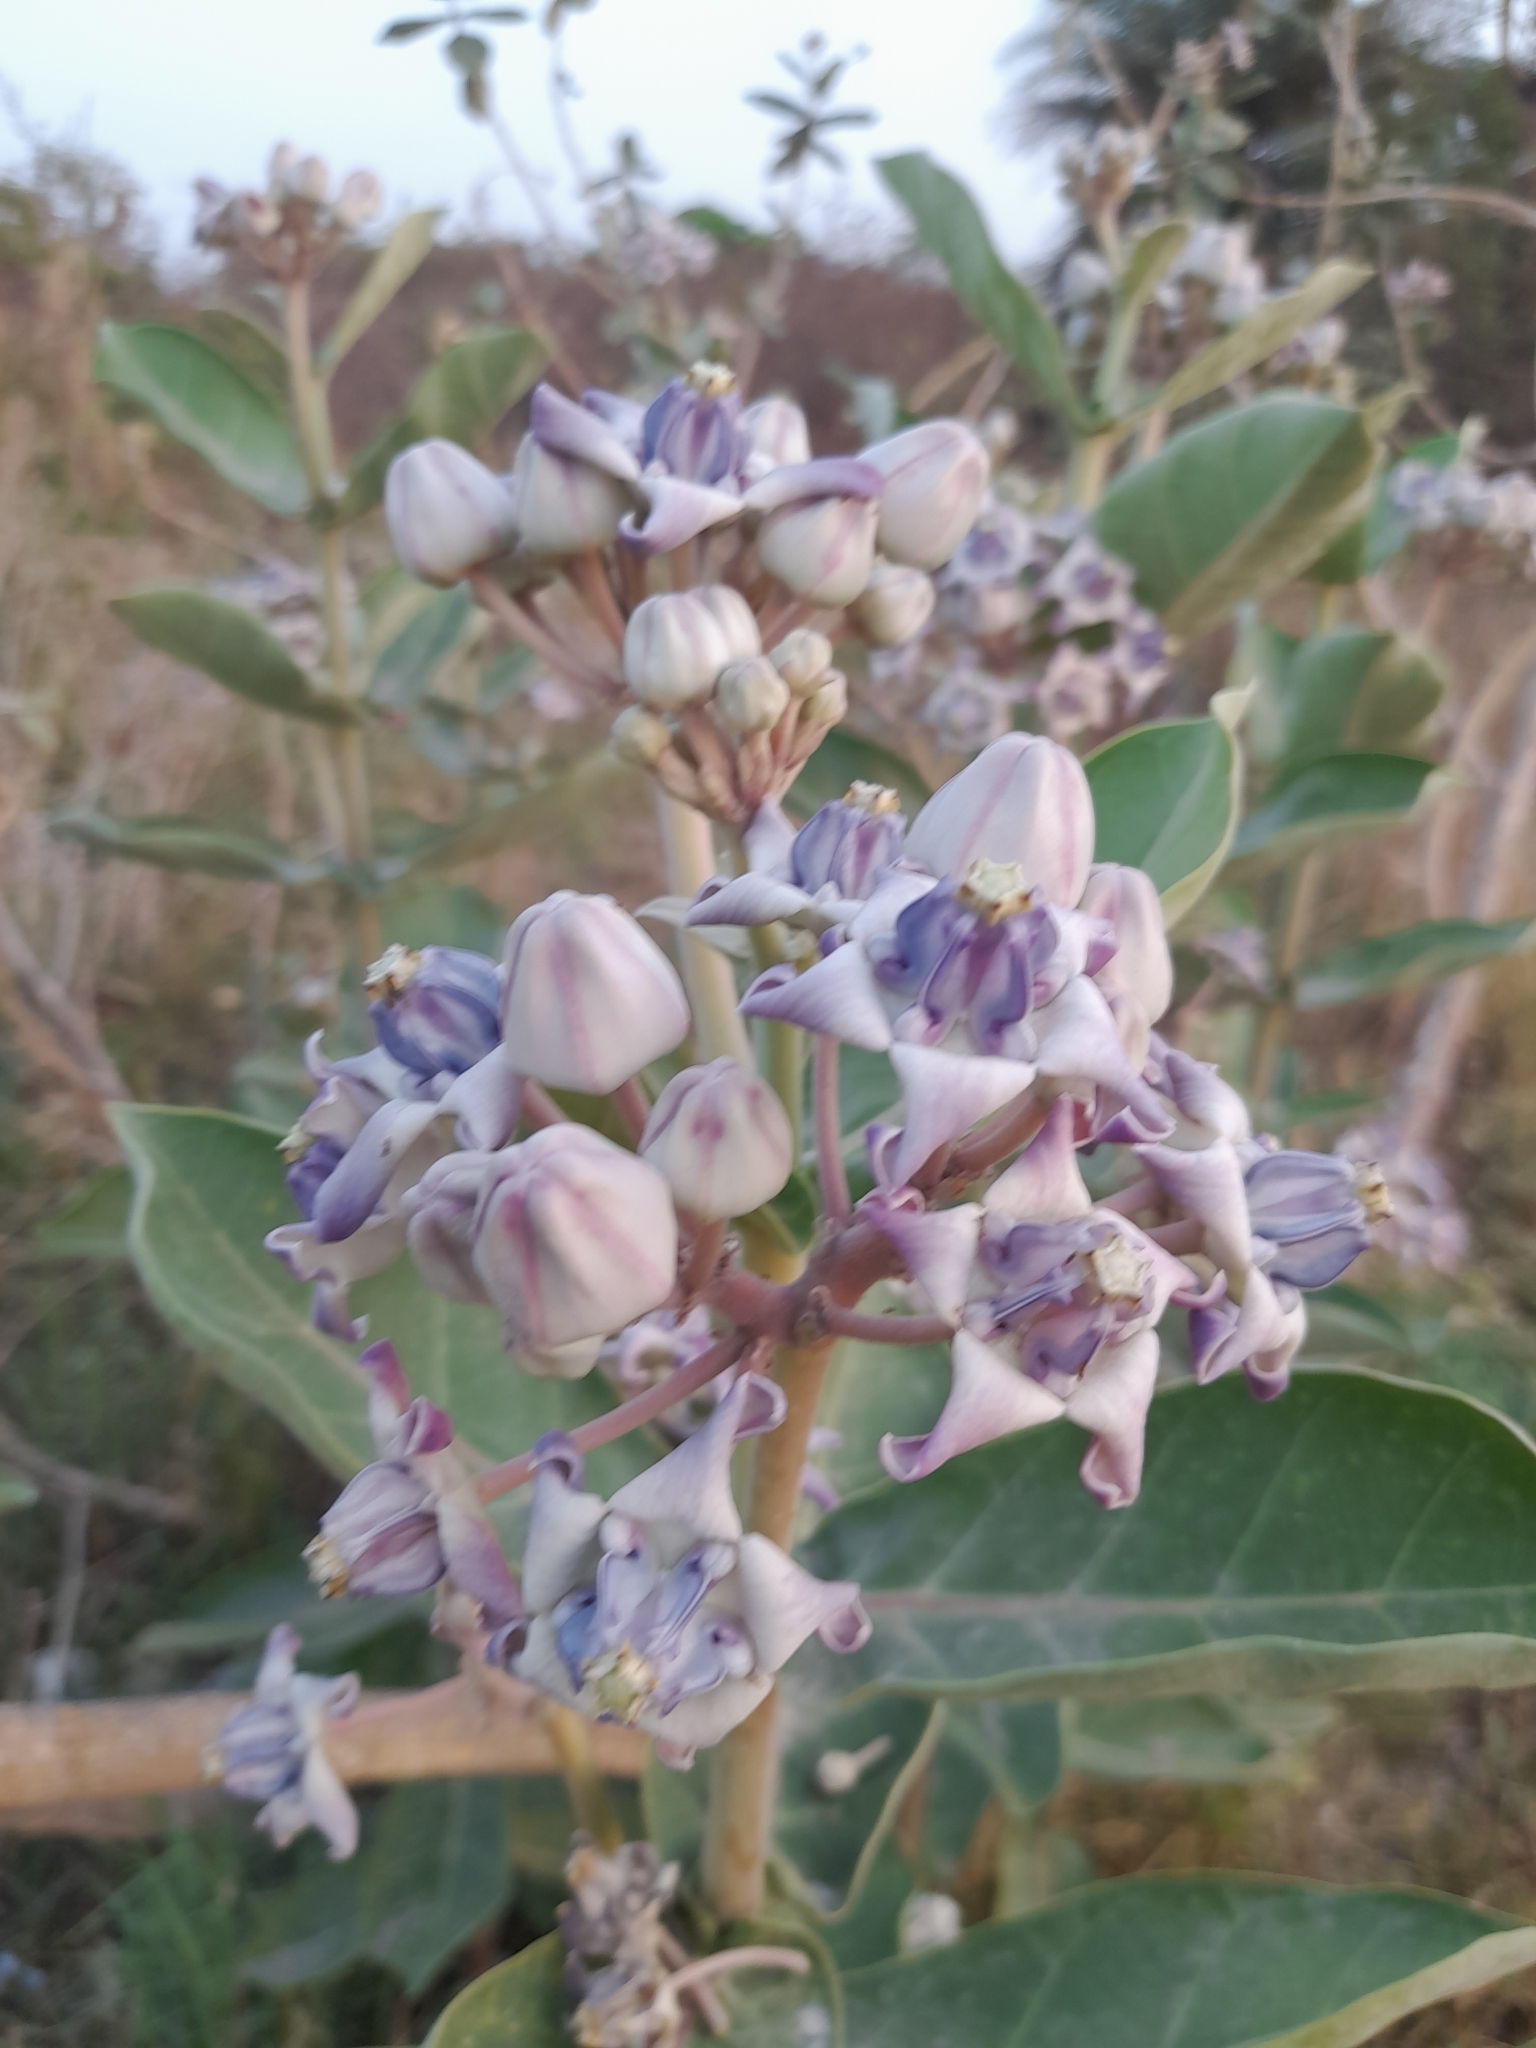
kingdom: Plantae
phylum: Tracheophyta
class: Magnoliopsida
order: Gentianales
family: Apocynaceae
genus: Calotropis
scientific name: Calotropis gigantea
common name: Crown flower
